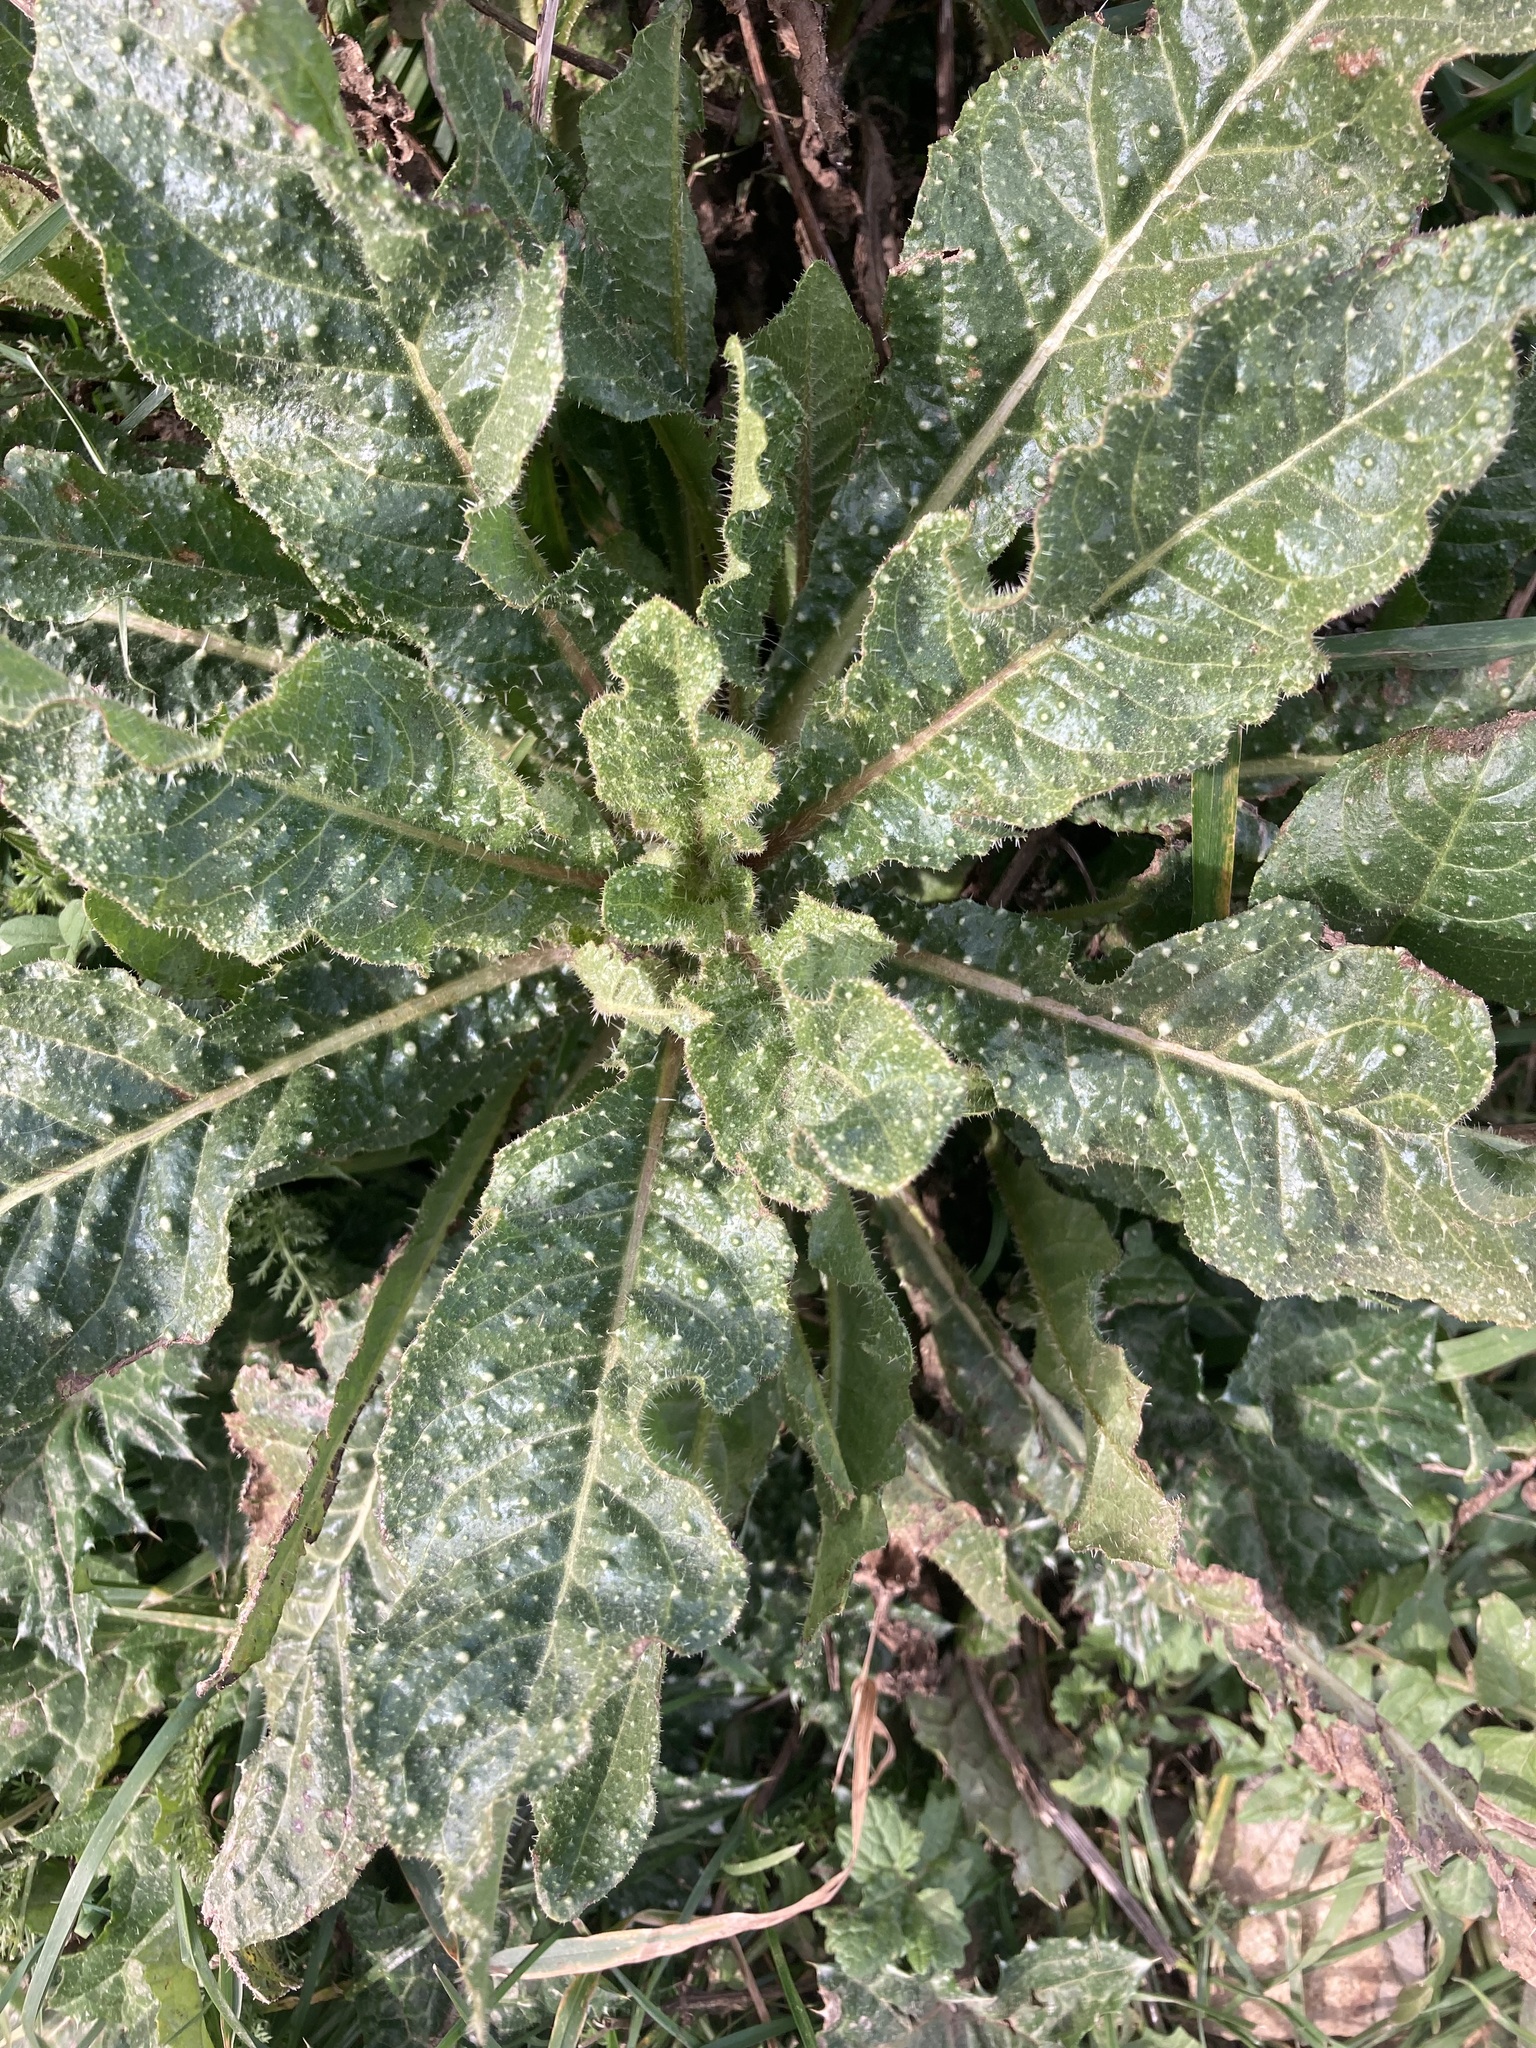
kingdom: Plantae
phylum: Tracheophyta
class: Magnoliopsida
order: Asterales
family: Asteraceae
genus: Helminthotheca
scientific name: Helminthotheca echioides
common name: Ox-tongue
